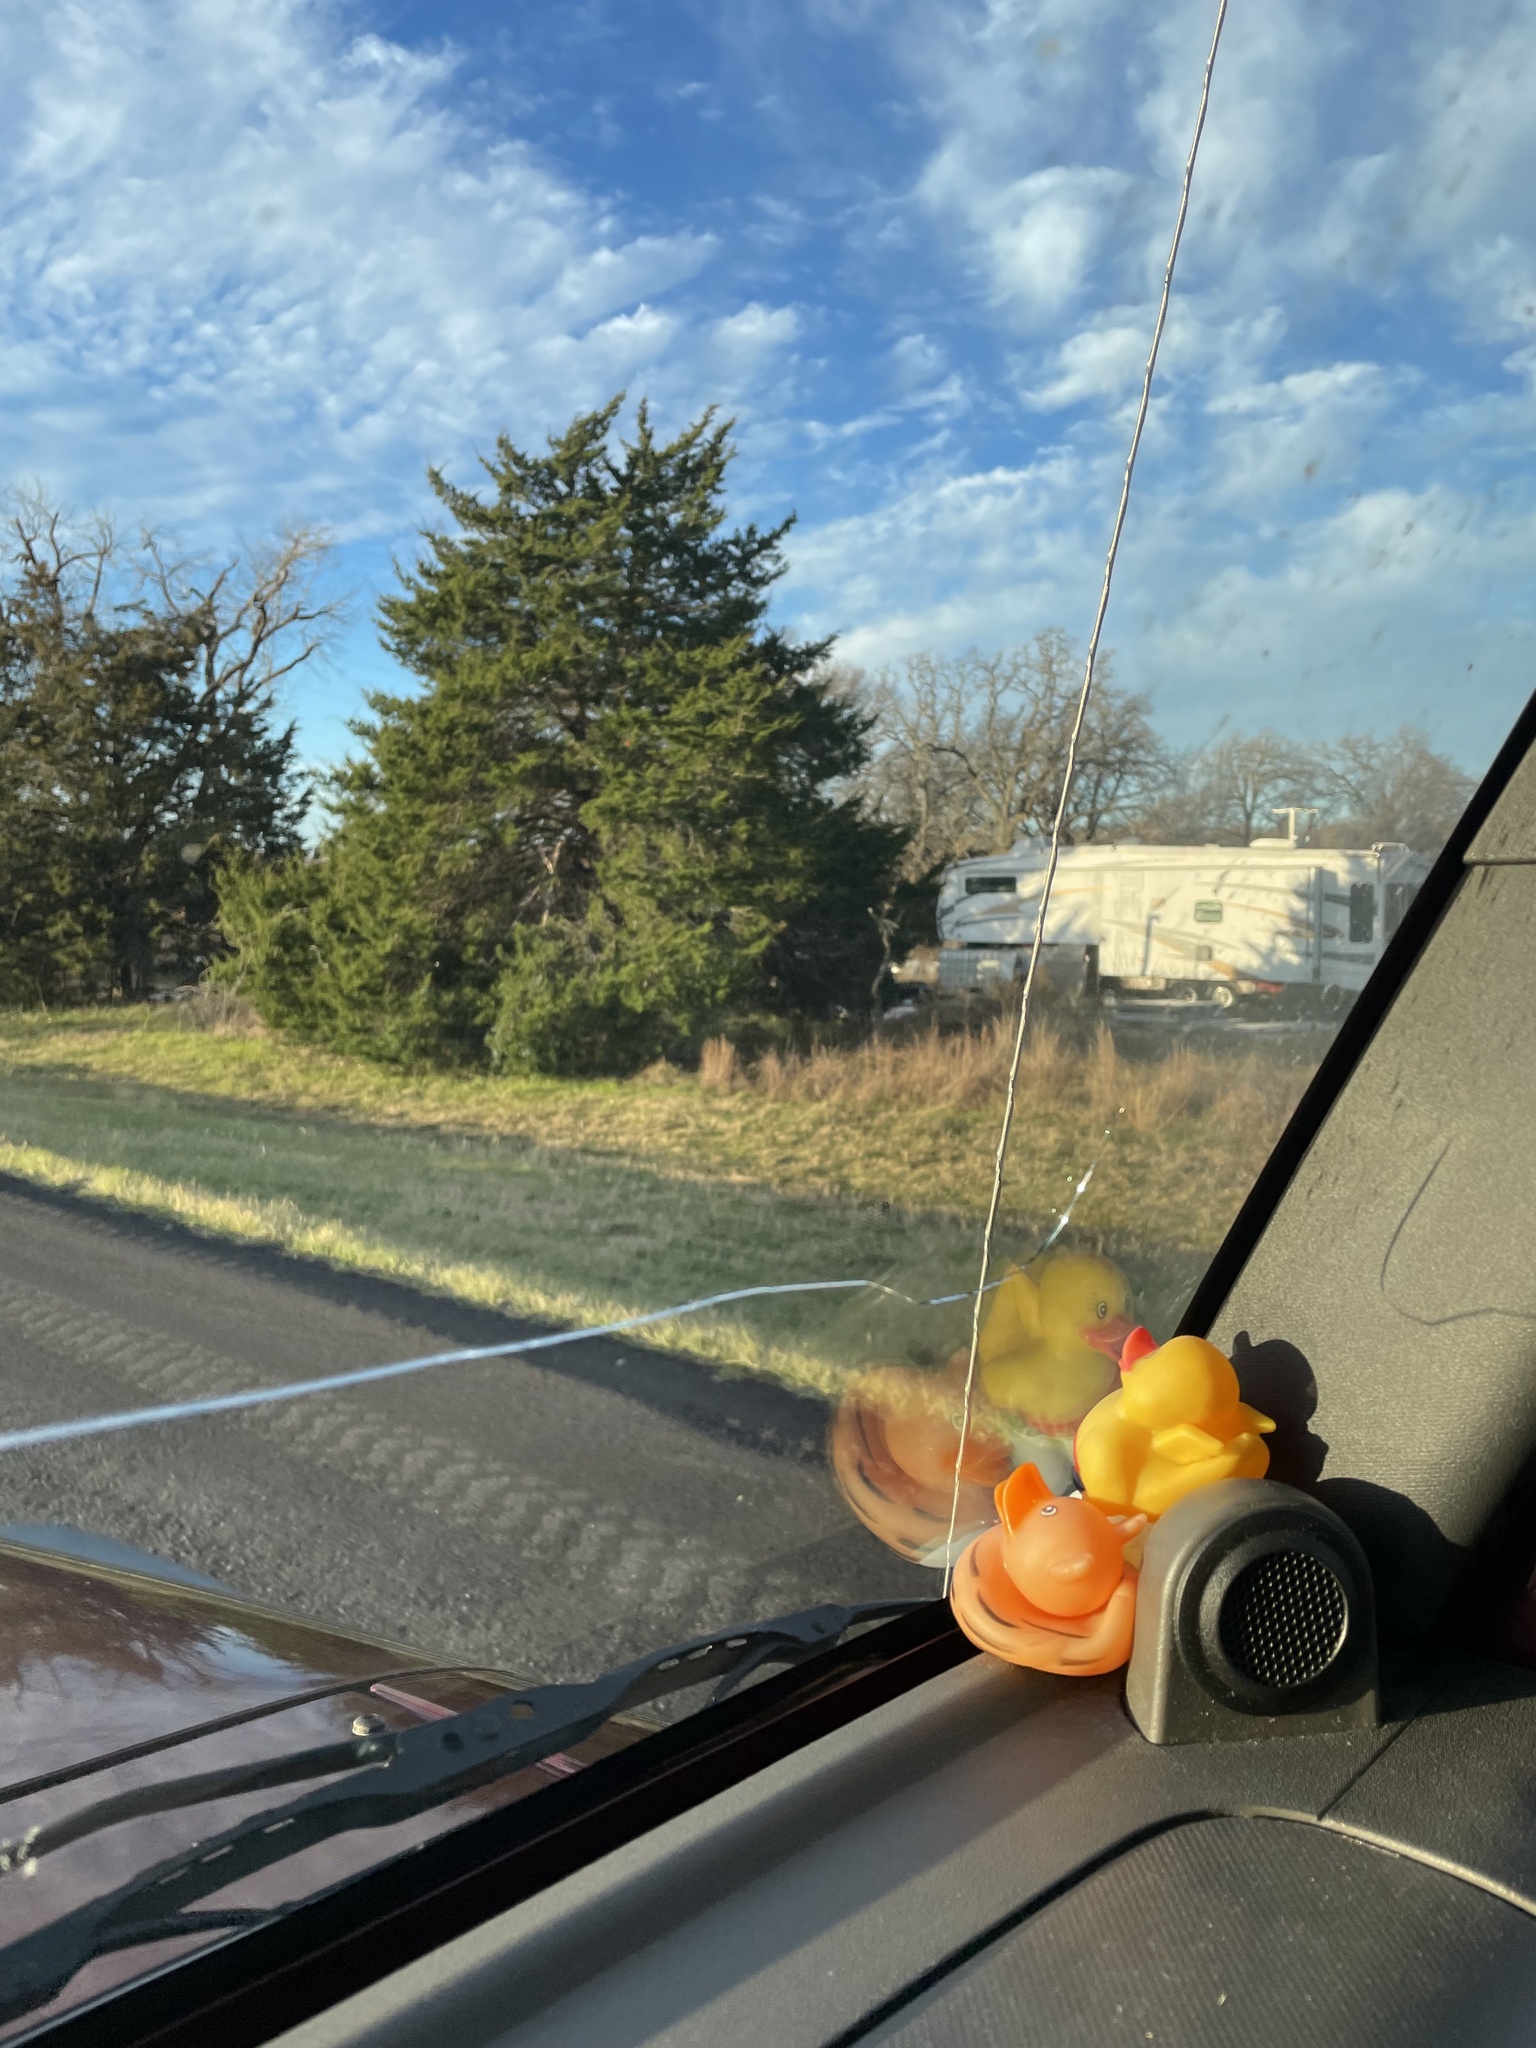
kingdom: Plantae
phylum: Tracheophyta
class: Pinopsida
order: Pinales
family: Cupressaceae
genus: Juniperus
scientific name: Juniperus virginiana
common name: Red juniper
